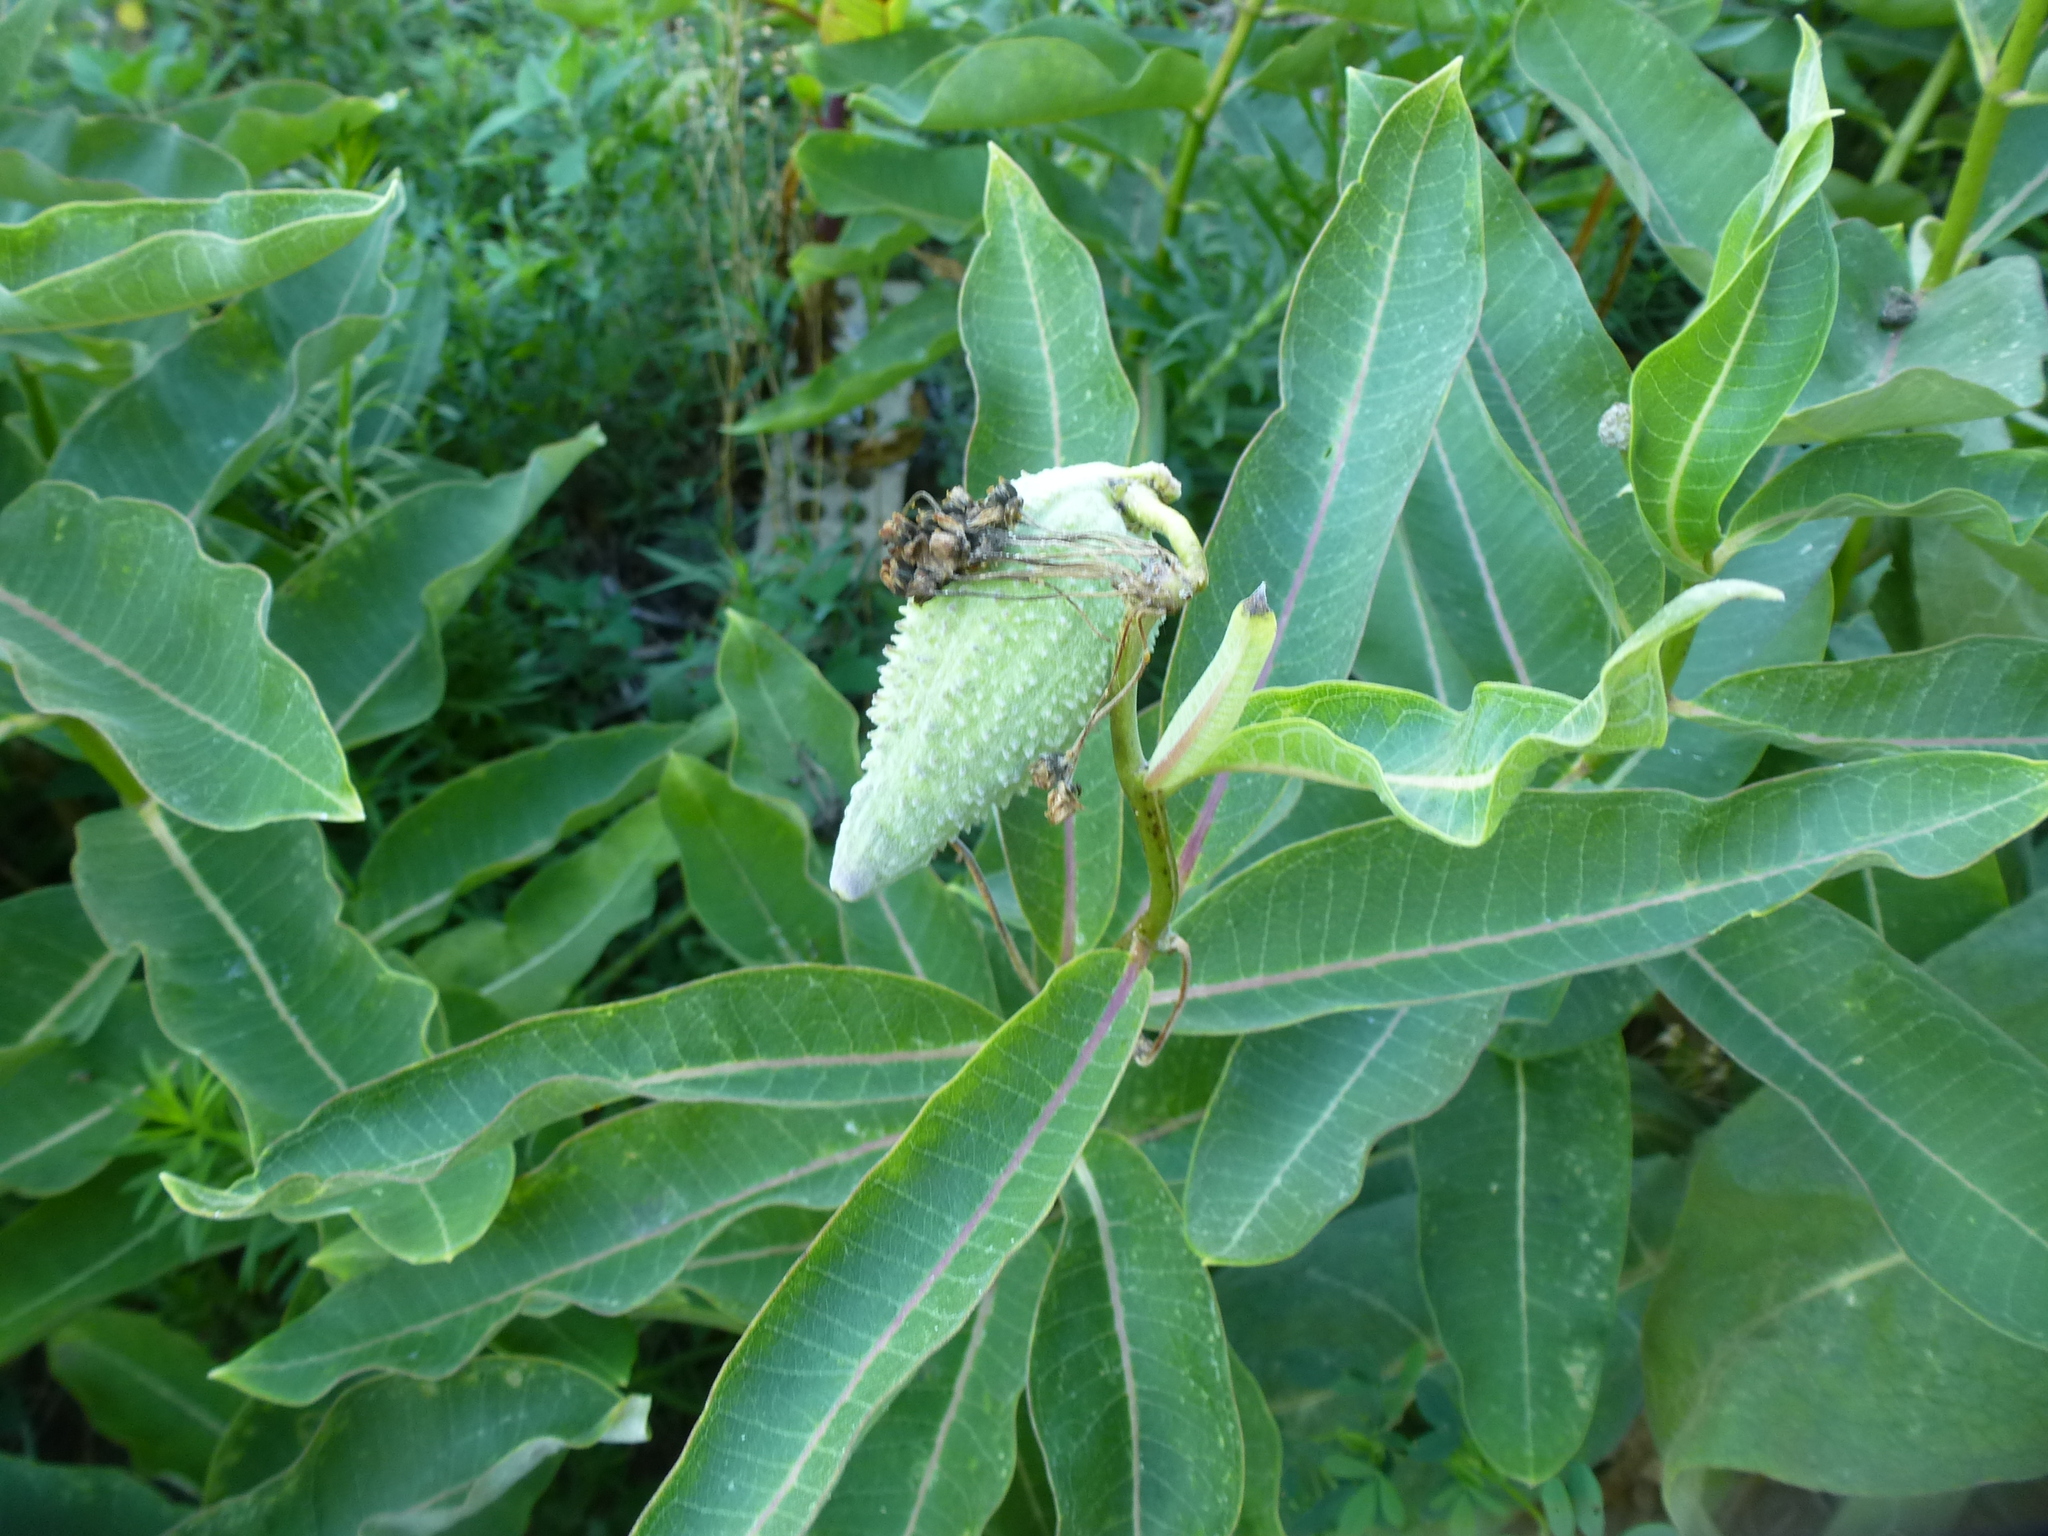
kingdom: Plantae
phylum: Tracheophyta
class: Magnoliopsida
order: Gentianales
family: Apocynaceae
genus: Asclepias
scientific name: Asclepias syriaca
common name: Common milkweed
